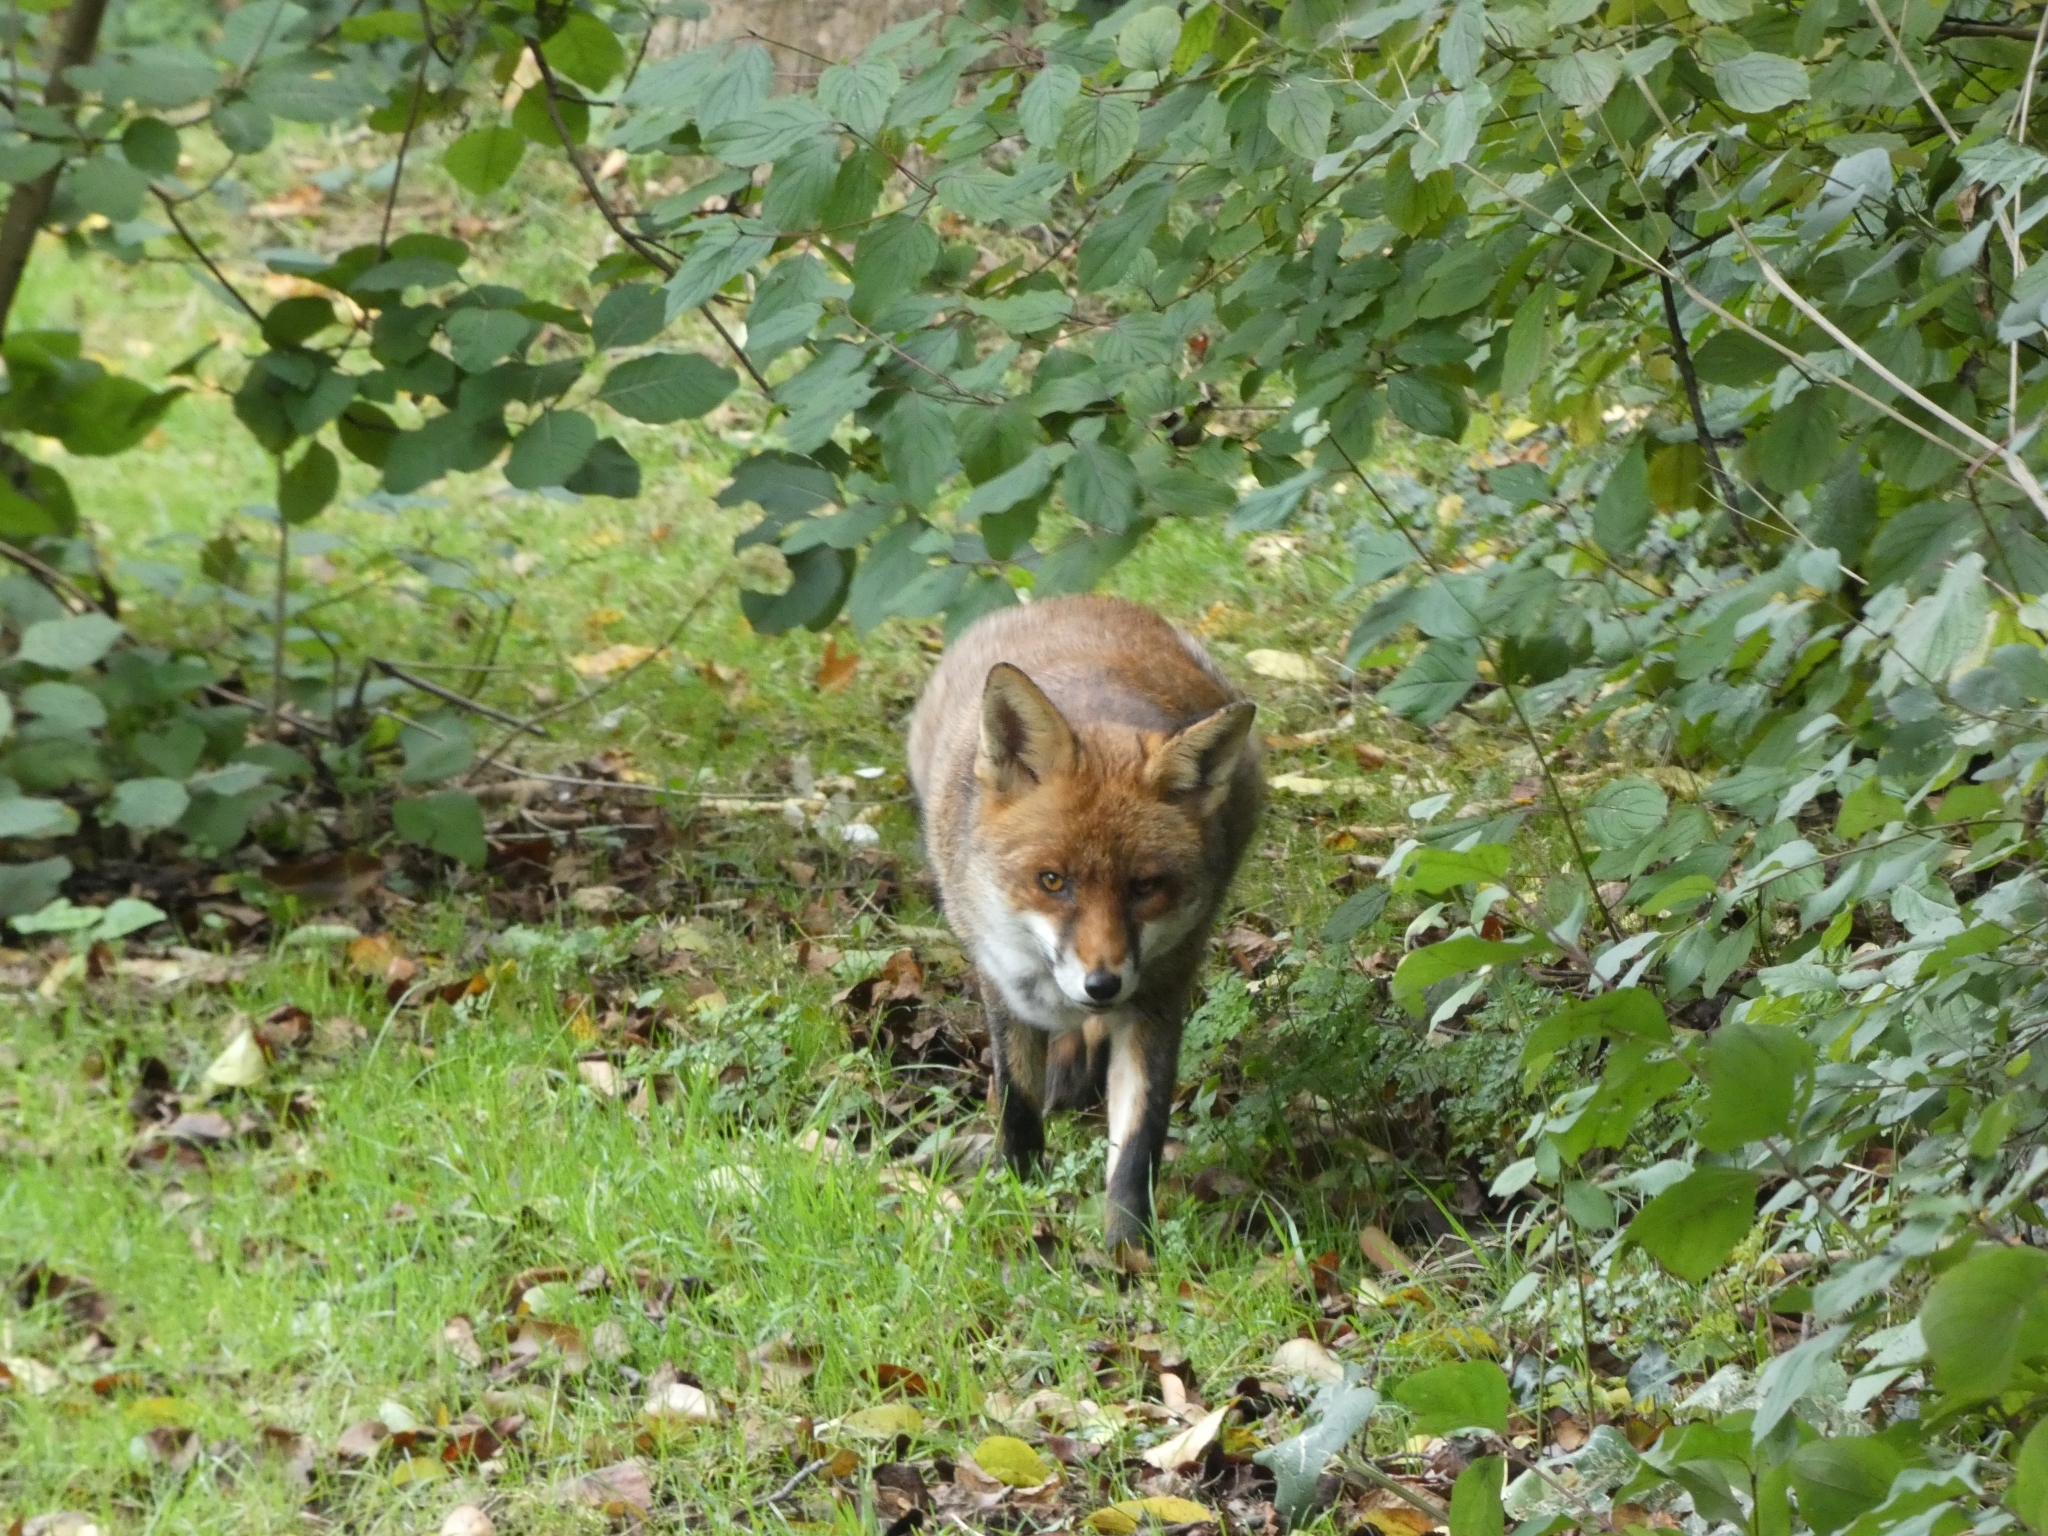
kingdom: Animalia
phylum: Chordata
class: Mammalia
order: Carnivora
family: Canidae
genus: Vulpes
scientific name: Vulpes vulpes
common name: Red fox
